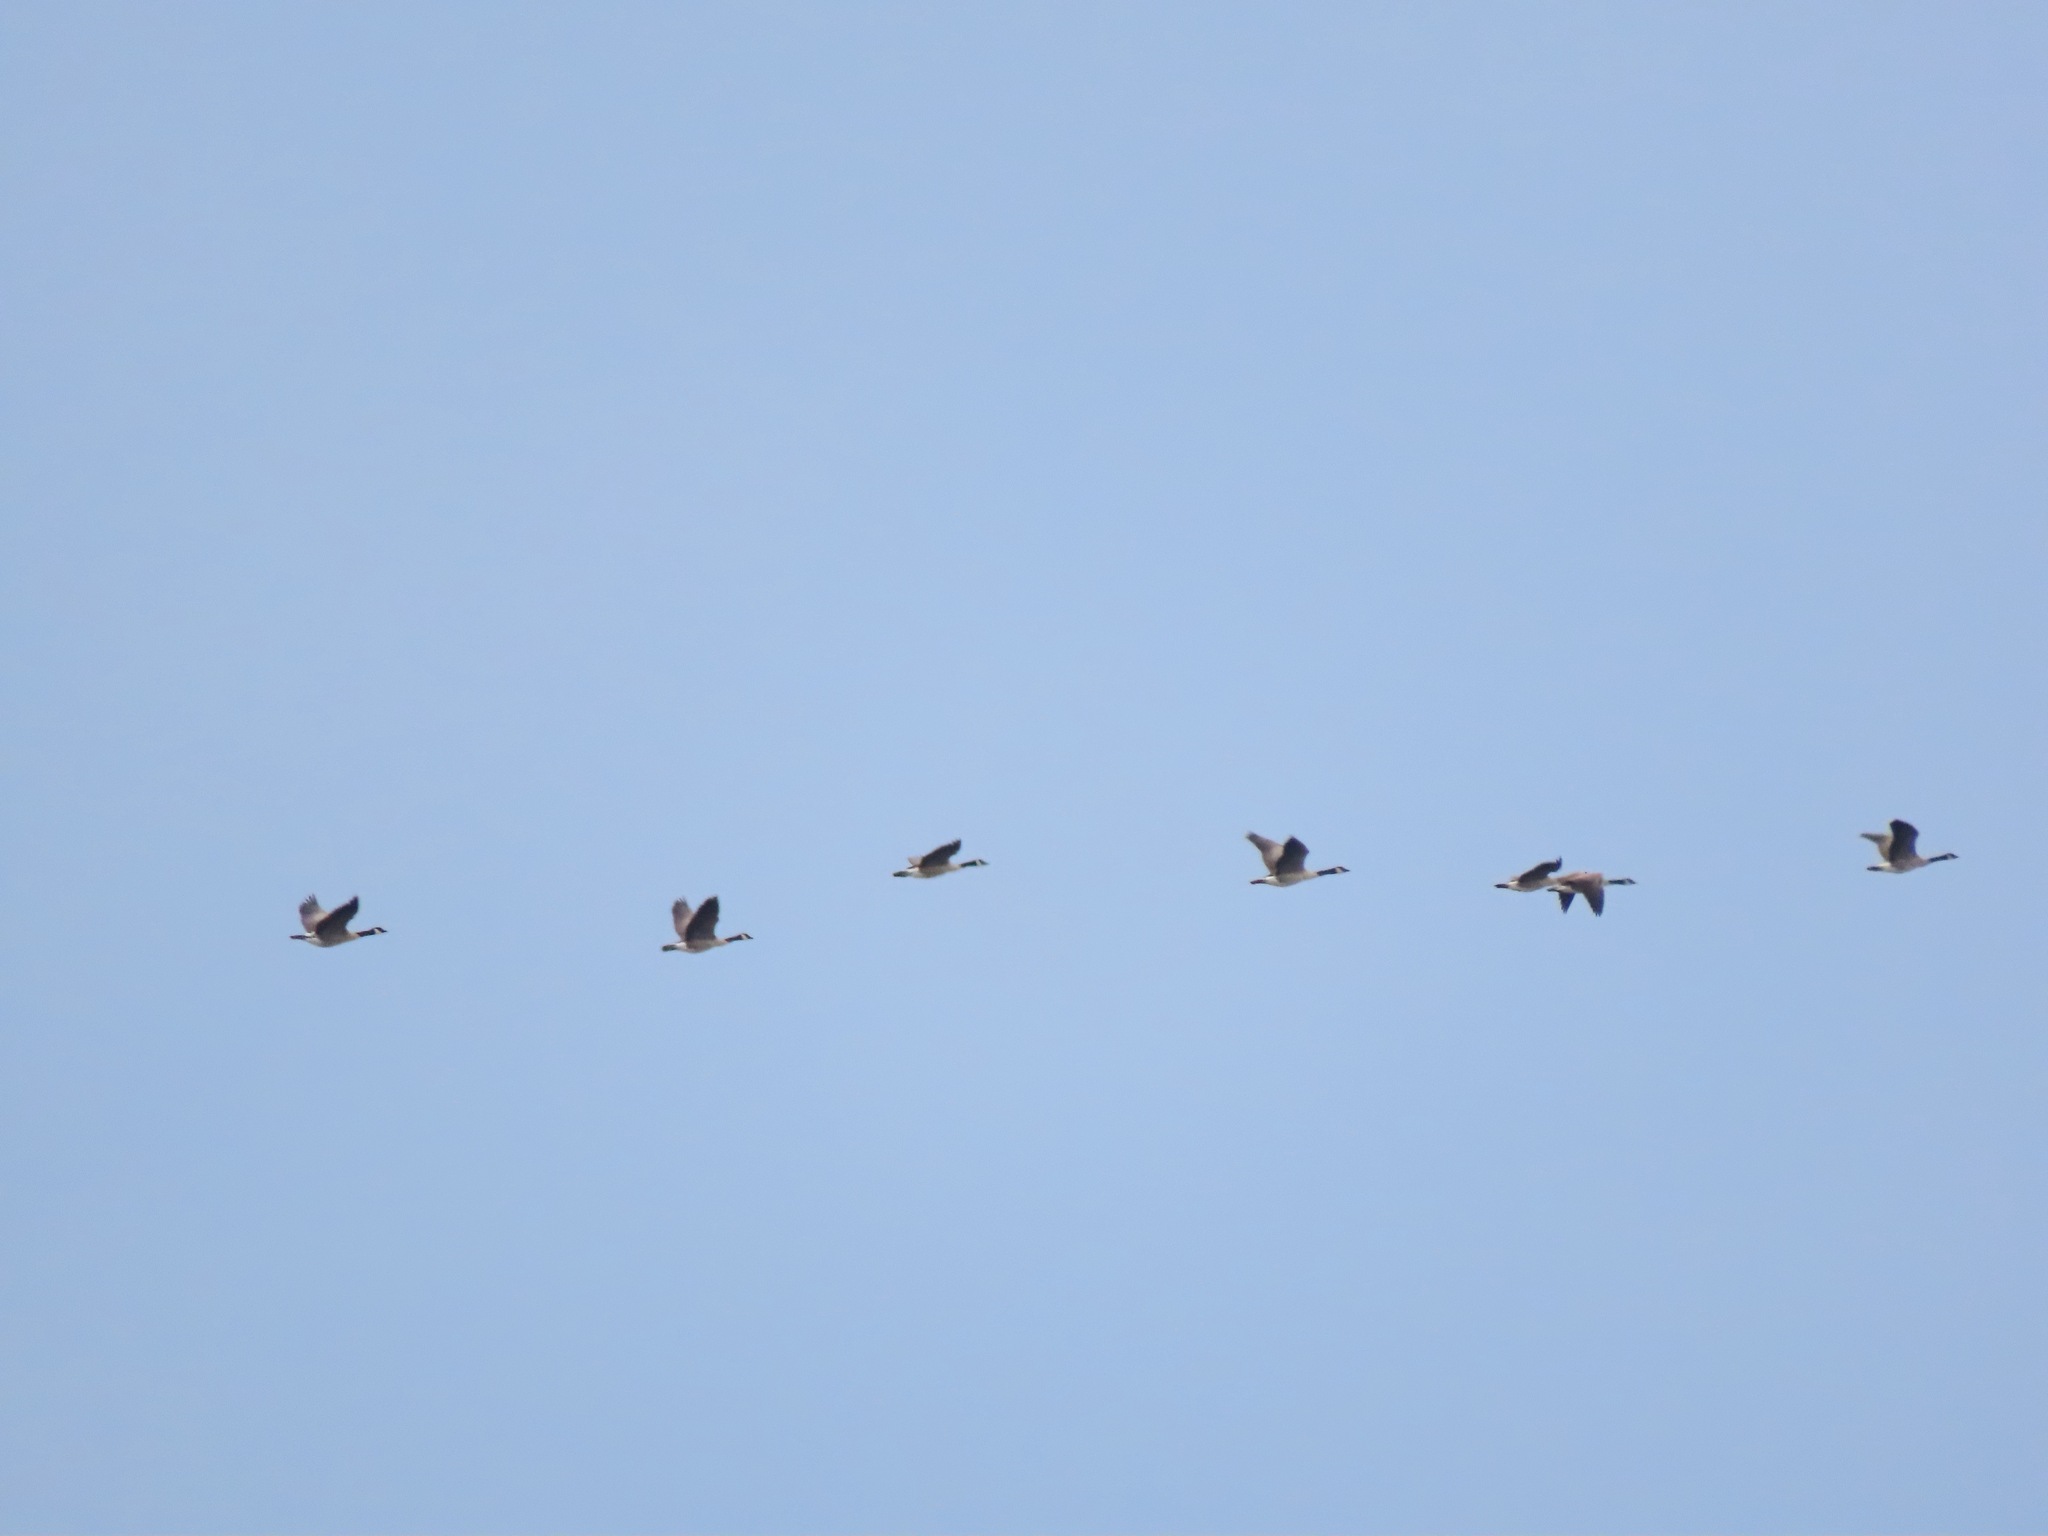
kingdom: Animalia
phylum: Chordata
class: Aves
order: Anseriformes
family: Anatidae
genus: Branta
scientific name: Branta canadensis
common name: Canada goose
